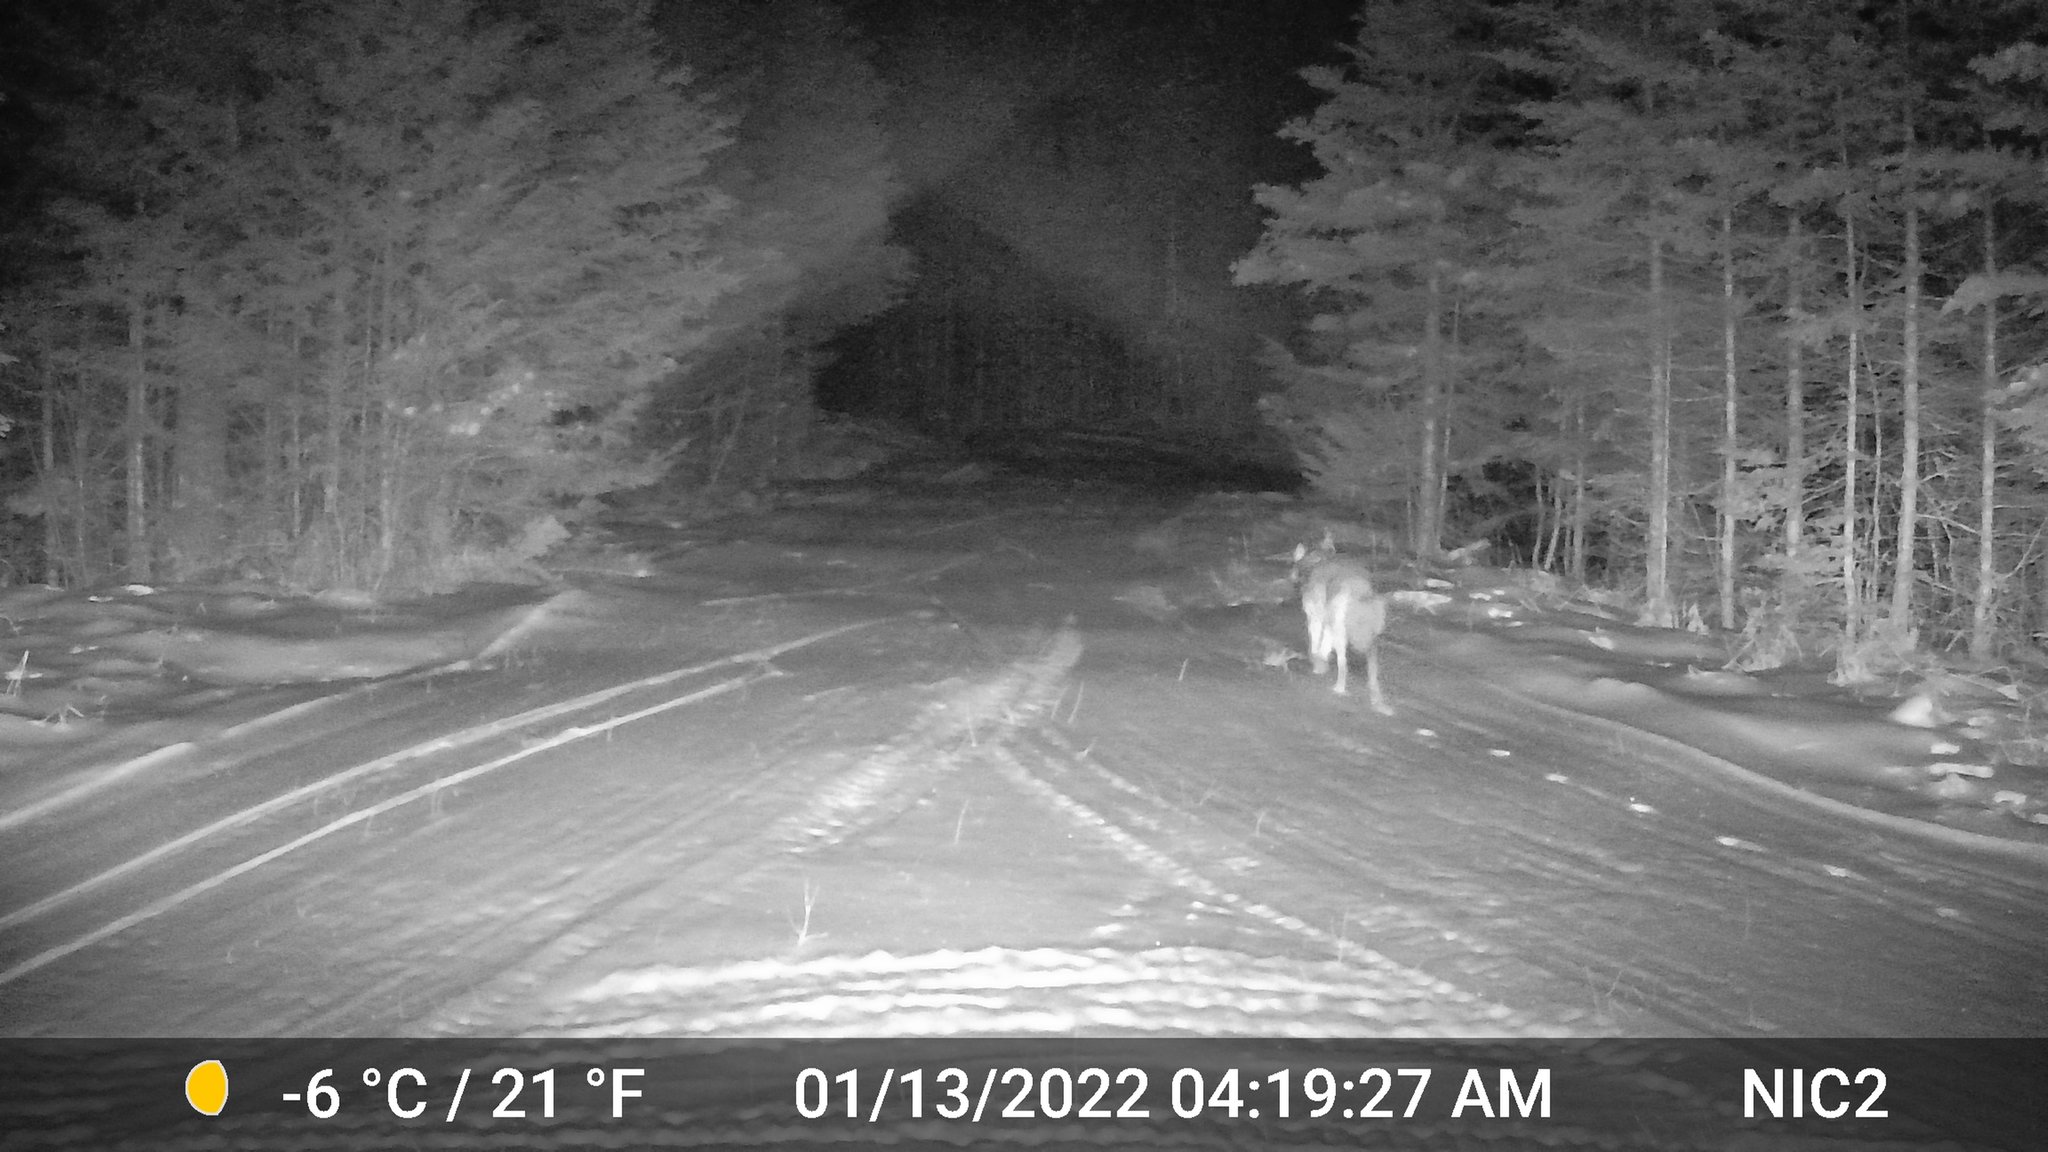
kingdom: Animalia
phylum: Chordata
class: Mammalia
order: Carnivora
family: Canidae
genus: Canis
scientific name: Canis latrans
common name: Coyote
